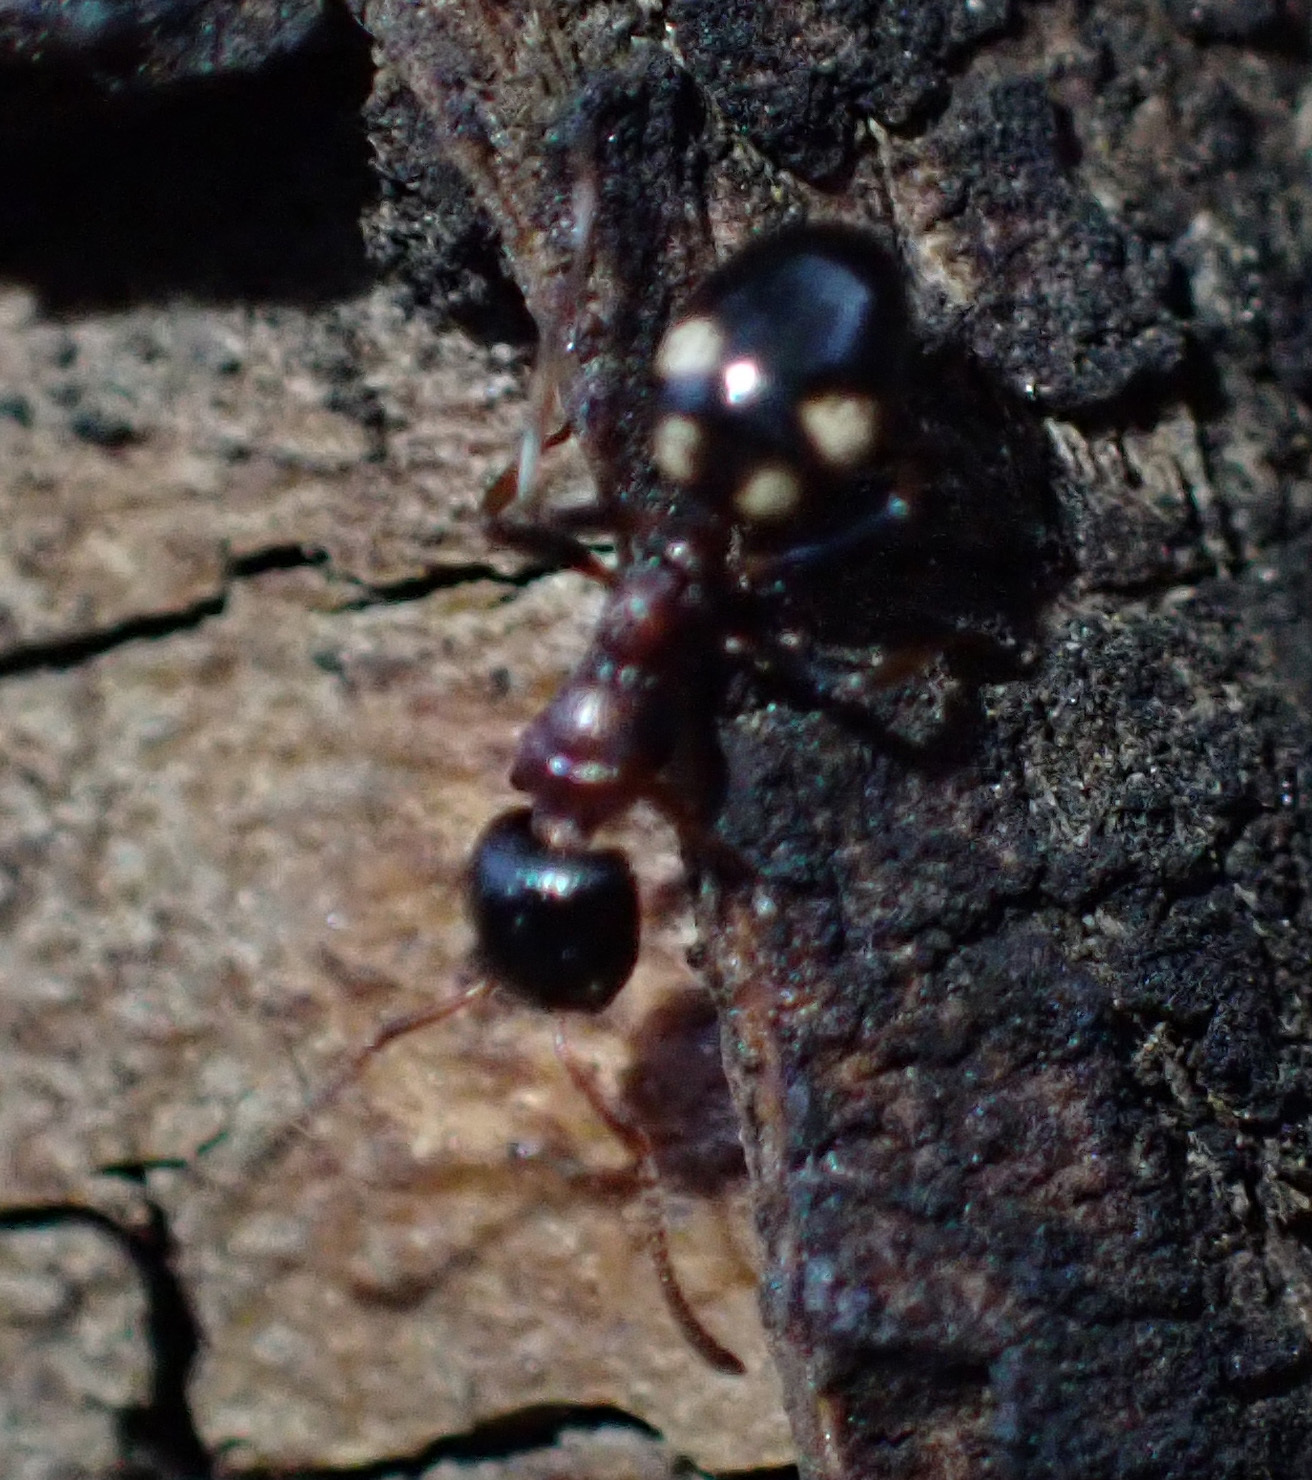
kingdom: Animalia
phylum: Arthropoda
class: Insecta
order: Hymenoptera
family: Formicidae
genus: Dolichoderus
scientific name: Dolichoderus quadripunctatus
